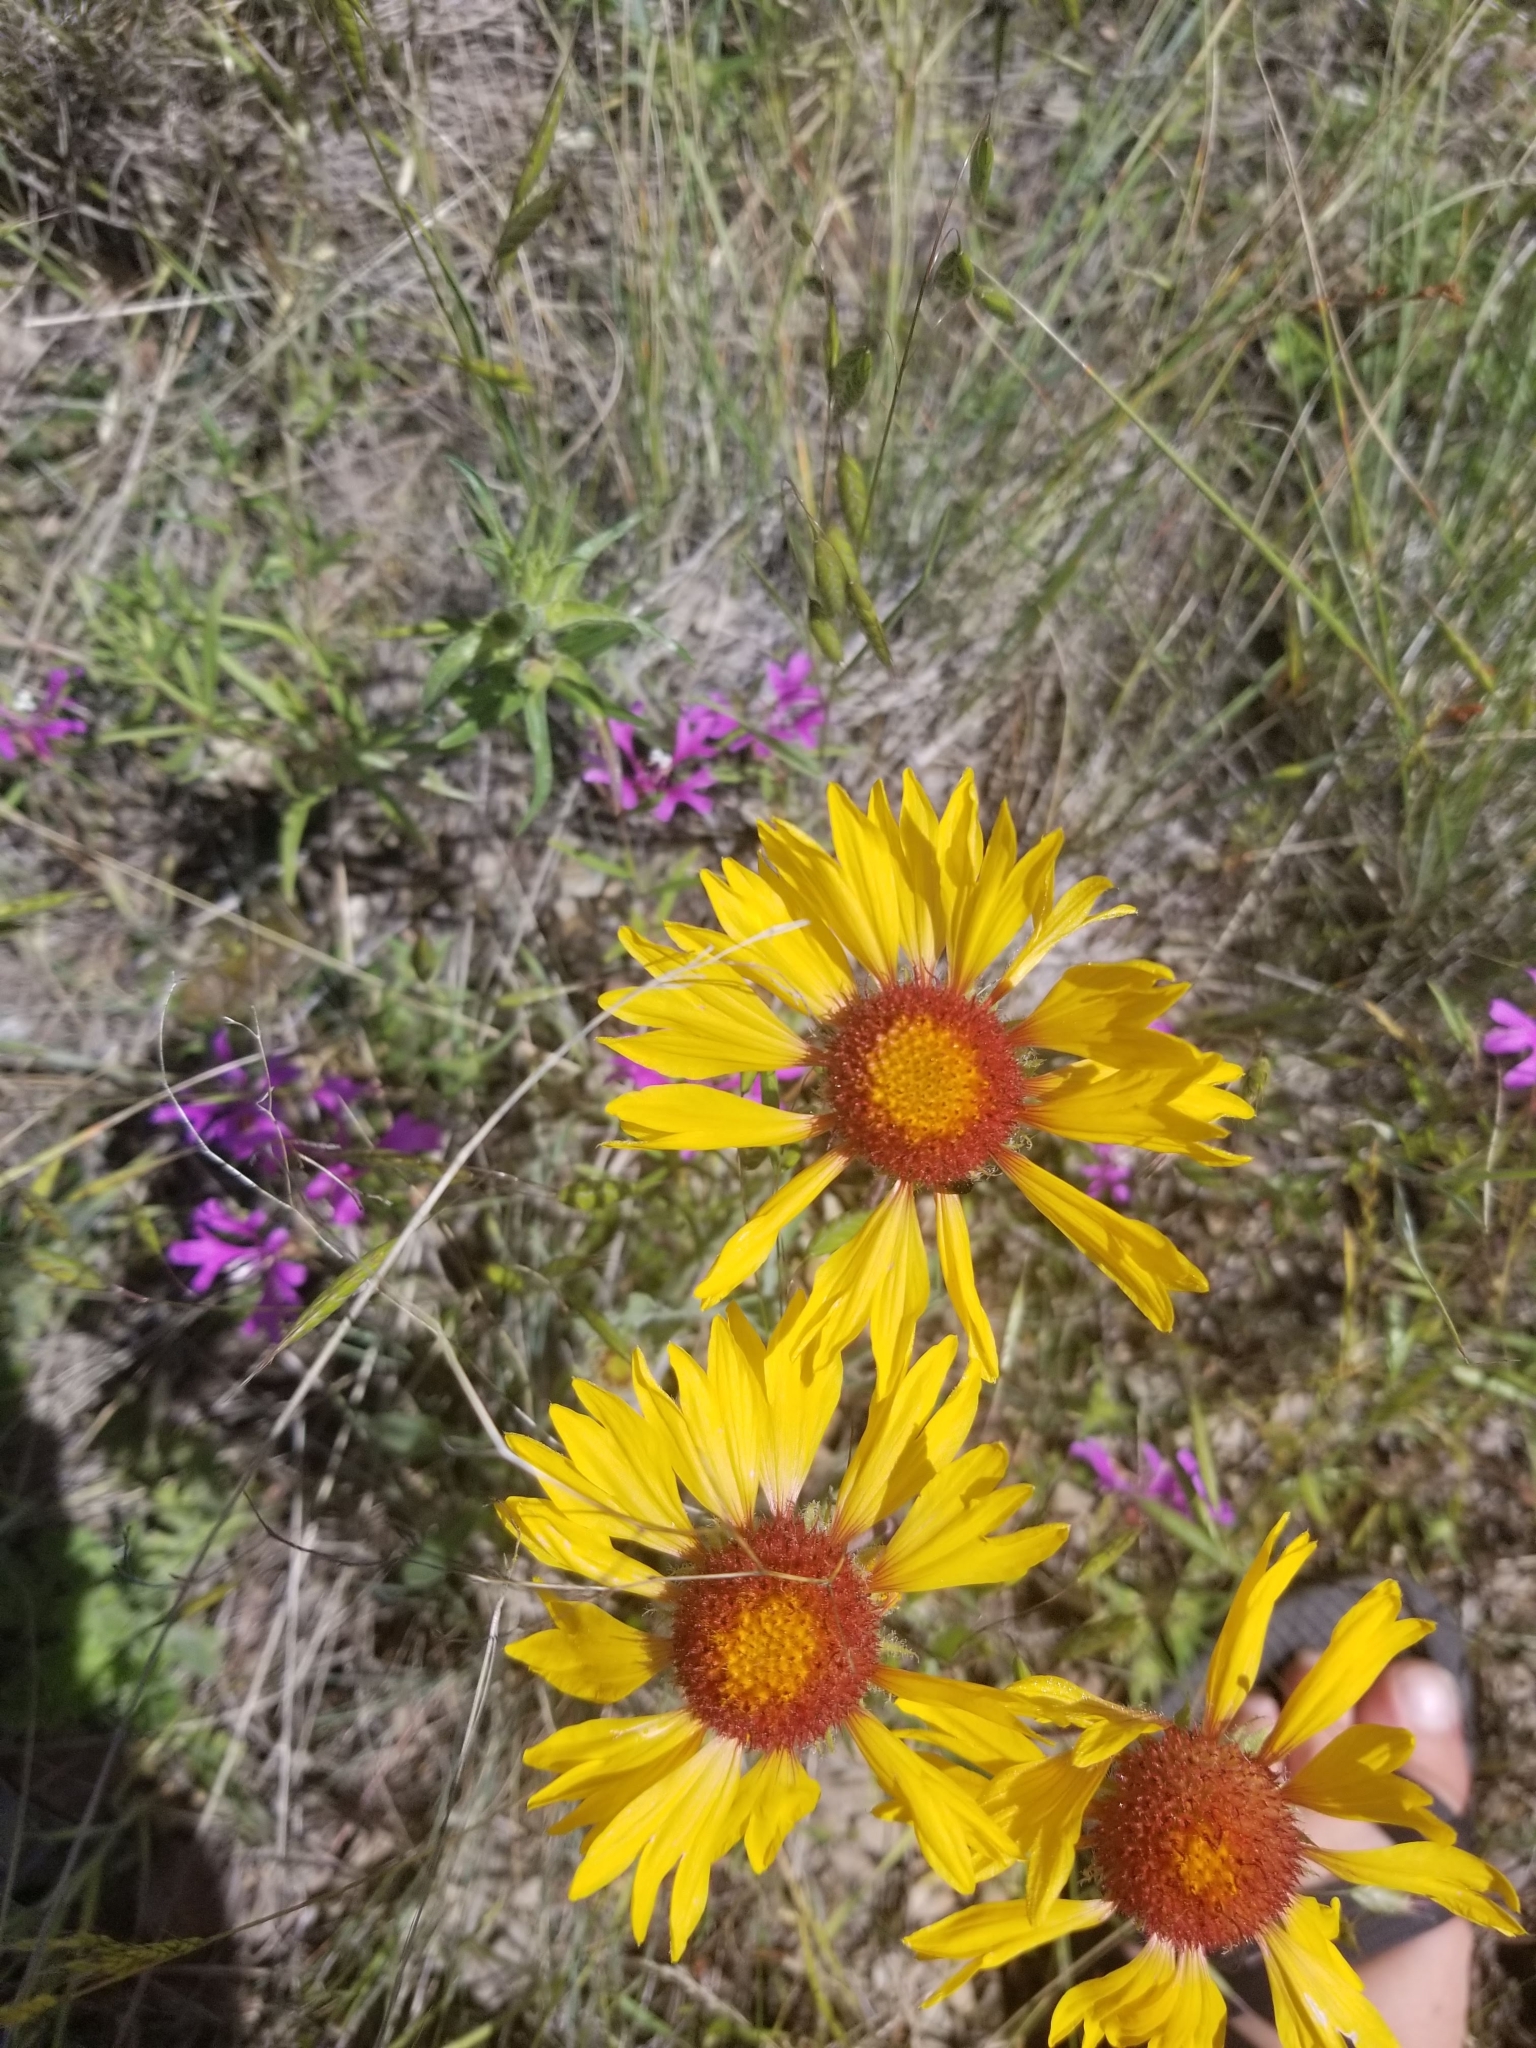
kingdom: Plantae
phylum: Tracheophyta
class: Magnoliopsida
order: Asterales
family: Asteraceae
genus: Gaillardia
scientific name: Gaillardia aristata
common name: Blanket-flower
